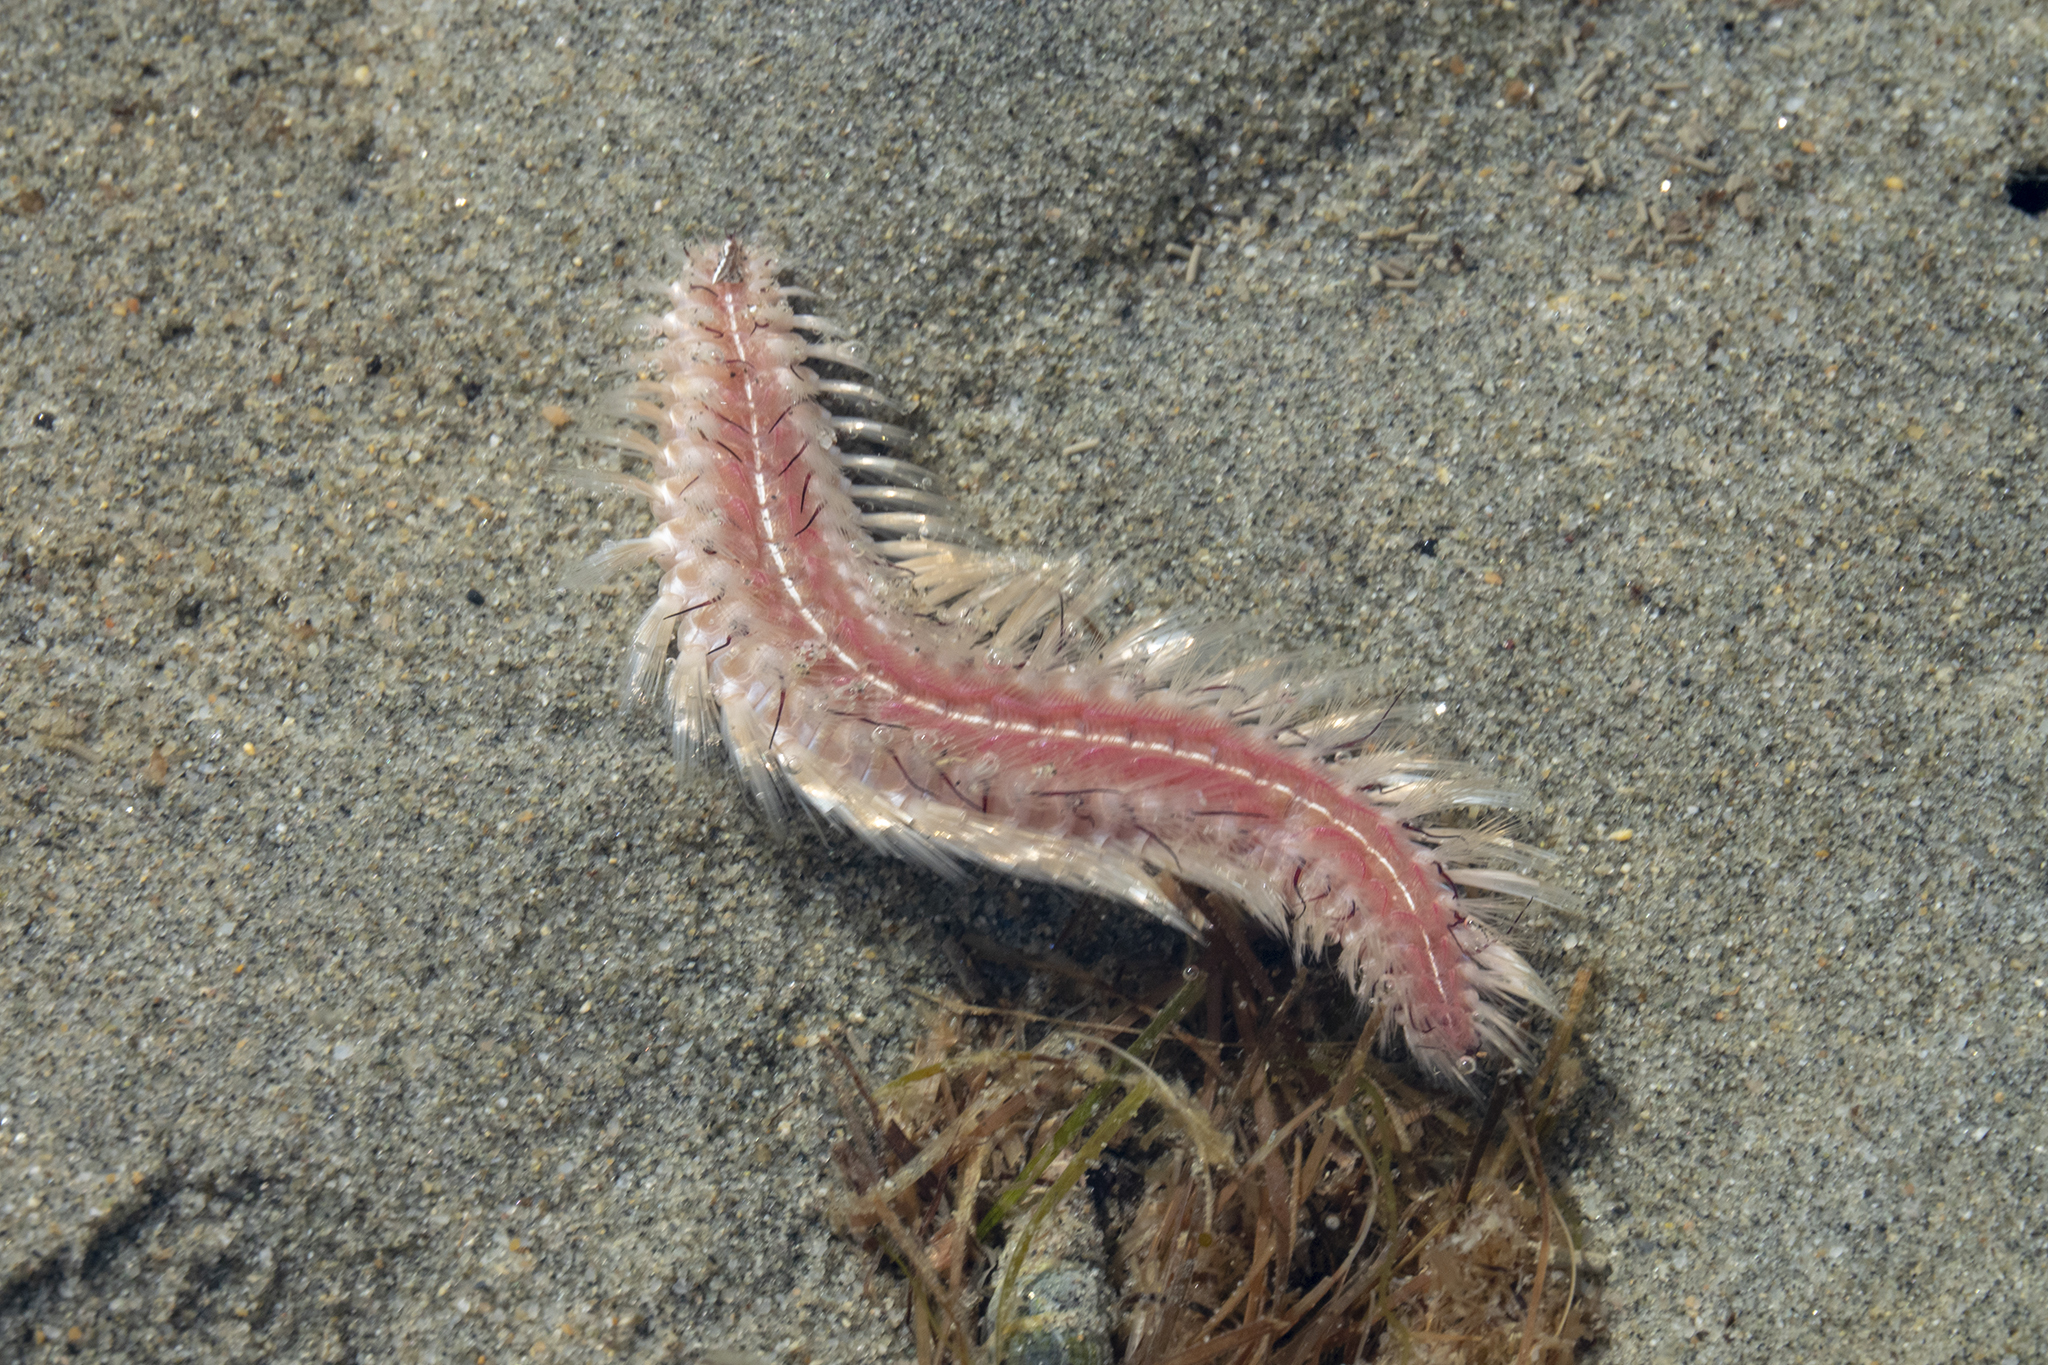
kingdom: Animalia
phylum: Annelida
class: Polychaeta
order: Amphinomida
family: Amphinomidae
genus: Chloeia
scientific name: Chloeia inermis
